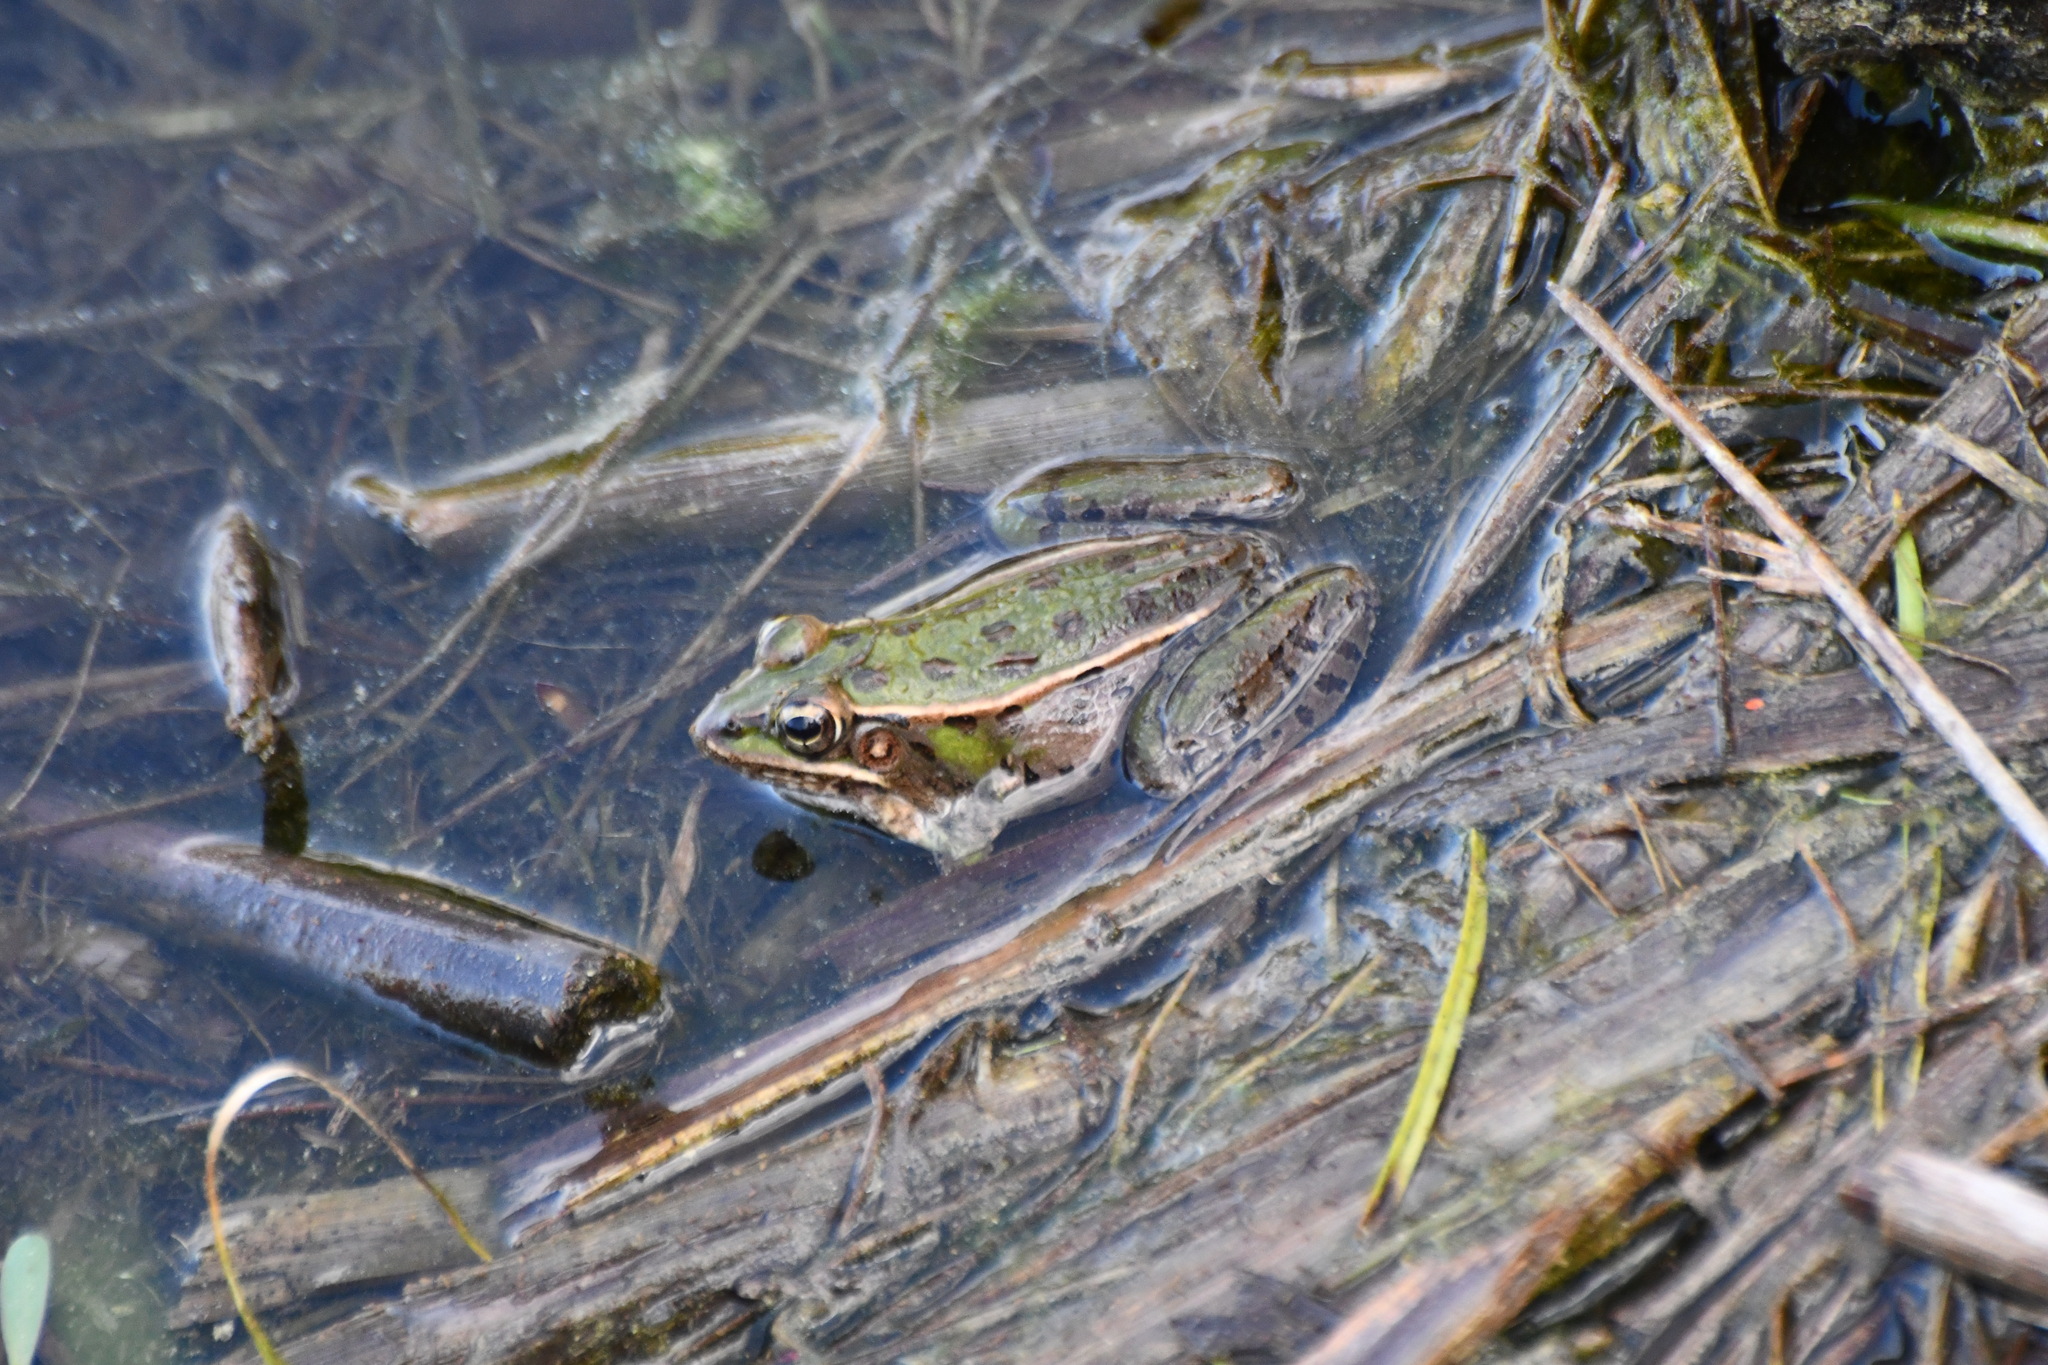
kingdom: Animalia
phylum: Chordata
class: Amphibia
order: Anura
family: Ranidae
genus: Lithobates
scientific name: Lithobates sphenocephalus
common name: Southern leopard frog
